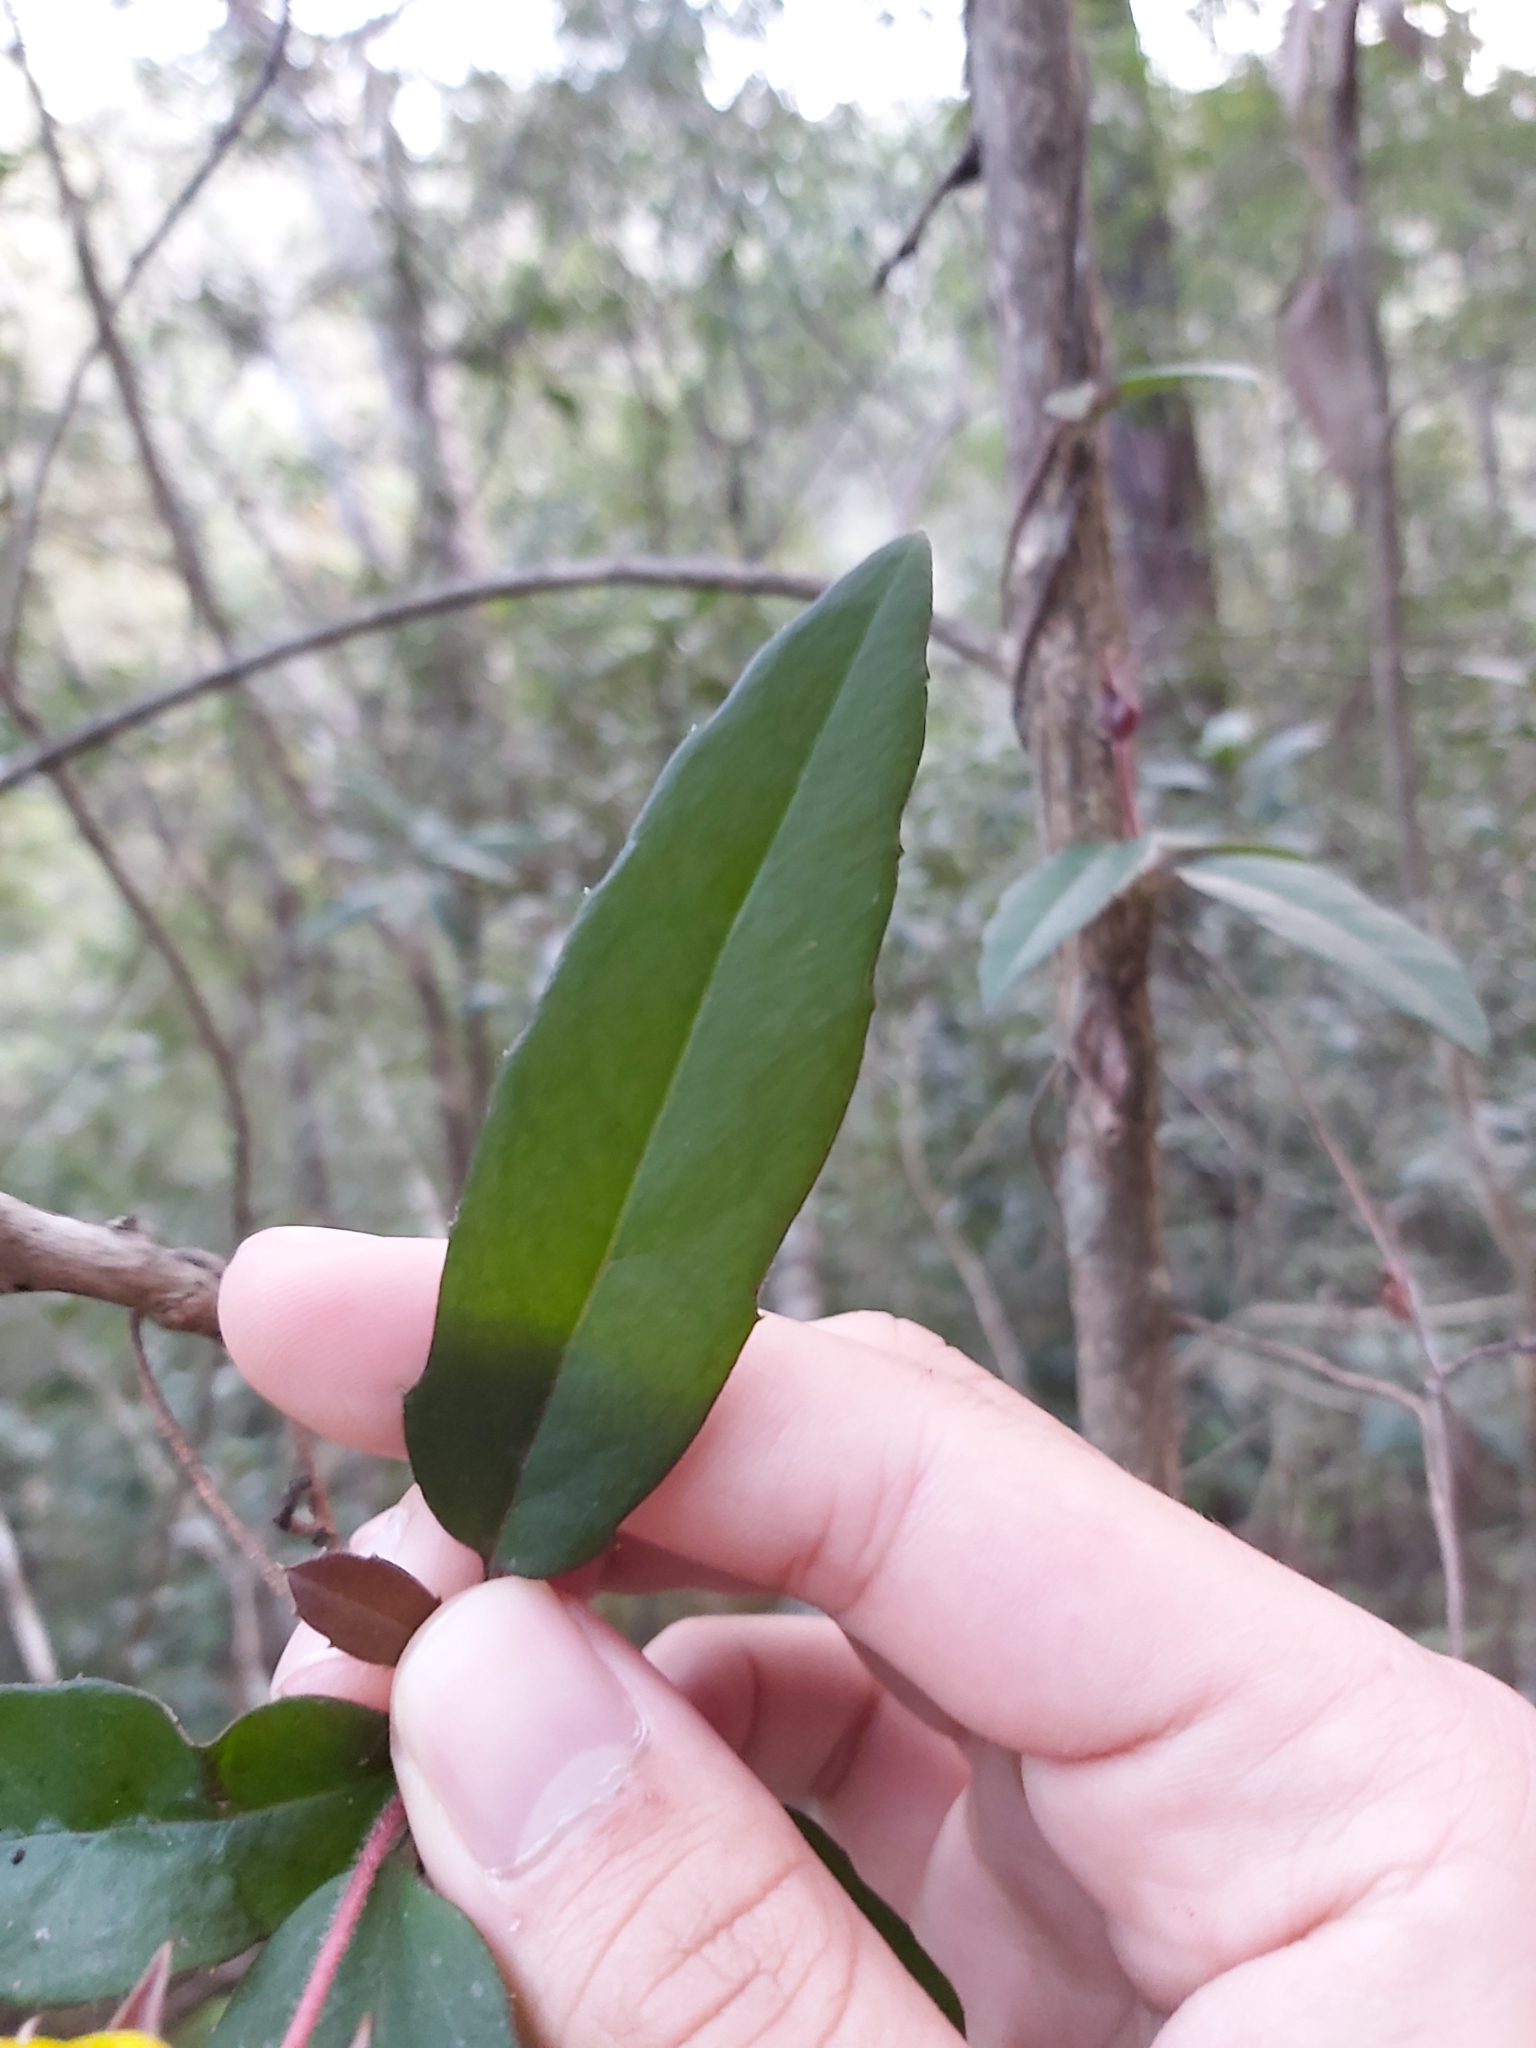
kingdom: Plantae
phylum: Tracheophyta
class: Magnoliopsida
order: Dilleniales
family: Dilleniaceae
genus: Hibbertia
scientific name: Hibbertia dentata
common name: Trailing guinea-flower
